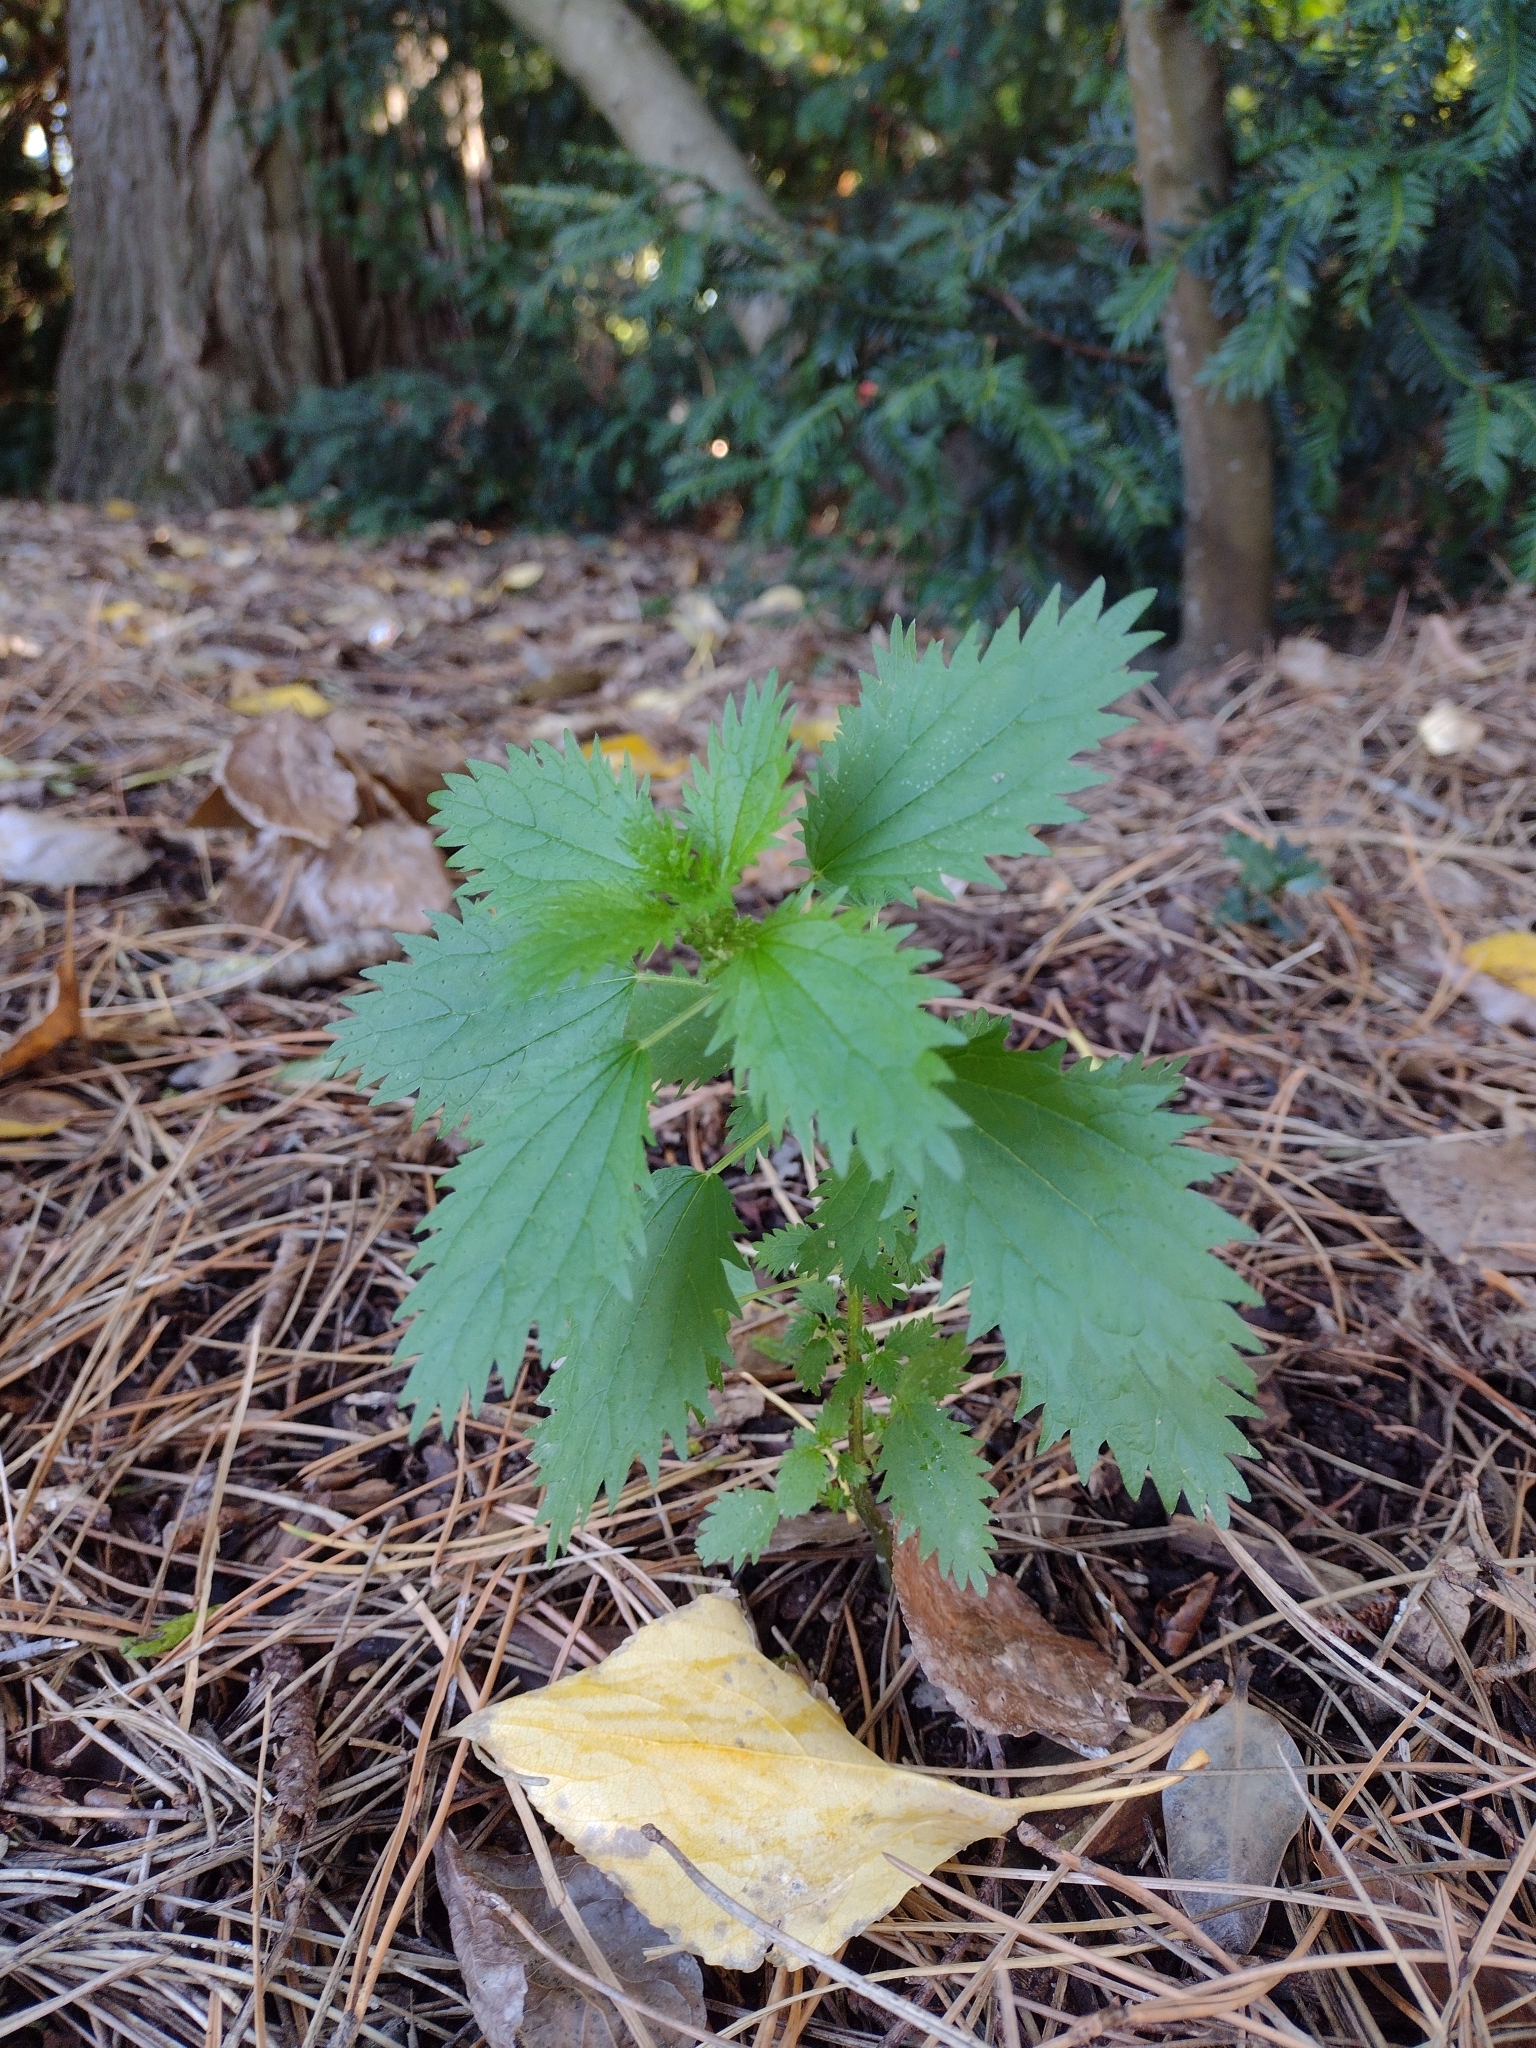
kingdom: Plantae
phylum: Tracheophyta
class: Magnoliopsida
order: Rosales
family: Urticaceae
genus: Urtica
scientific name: Urtica urens
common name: Dwarf nettle
